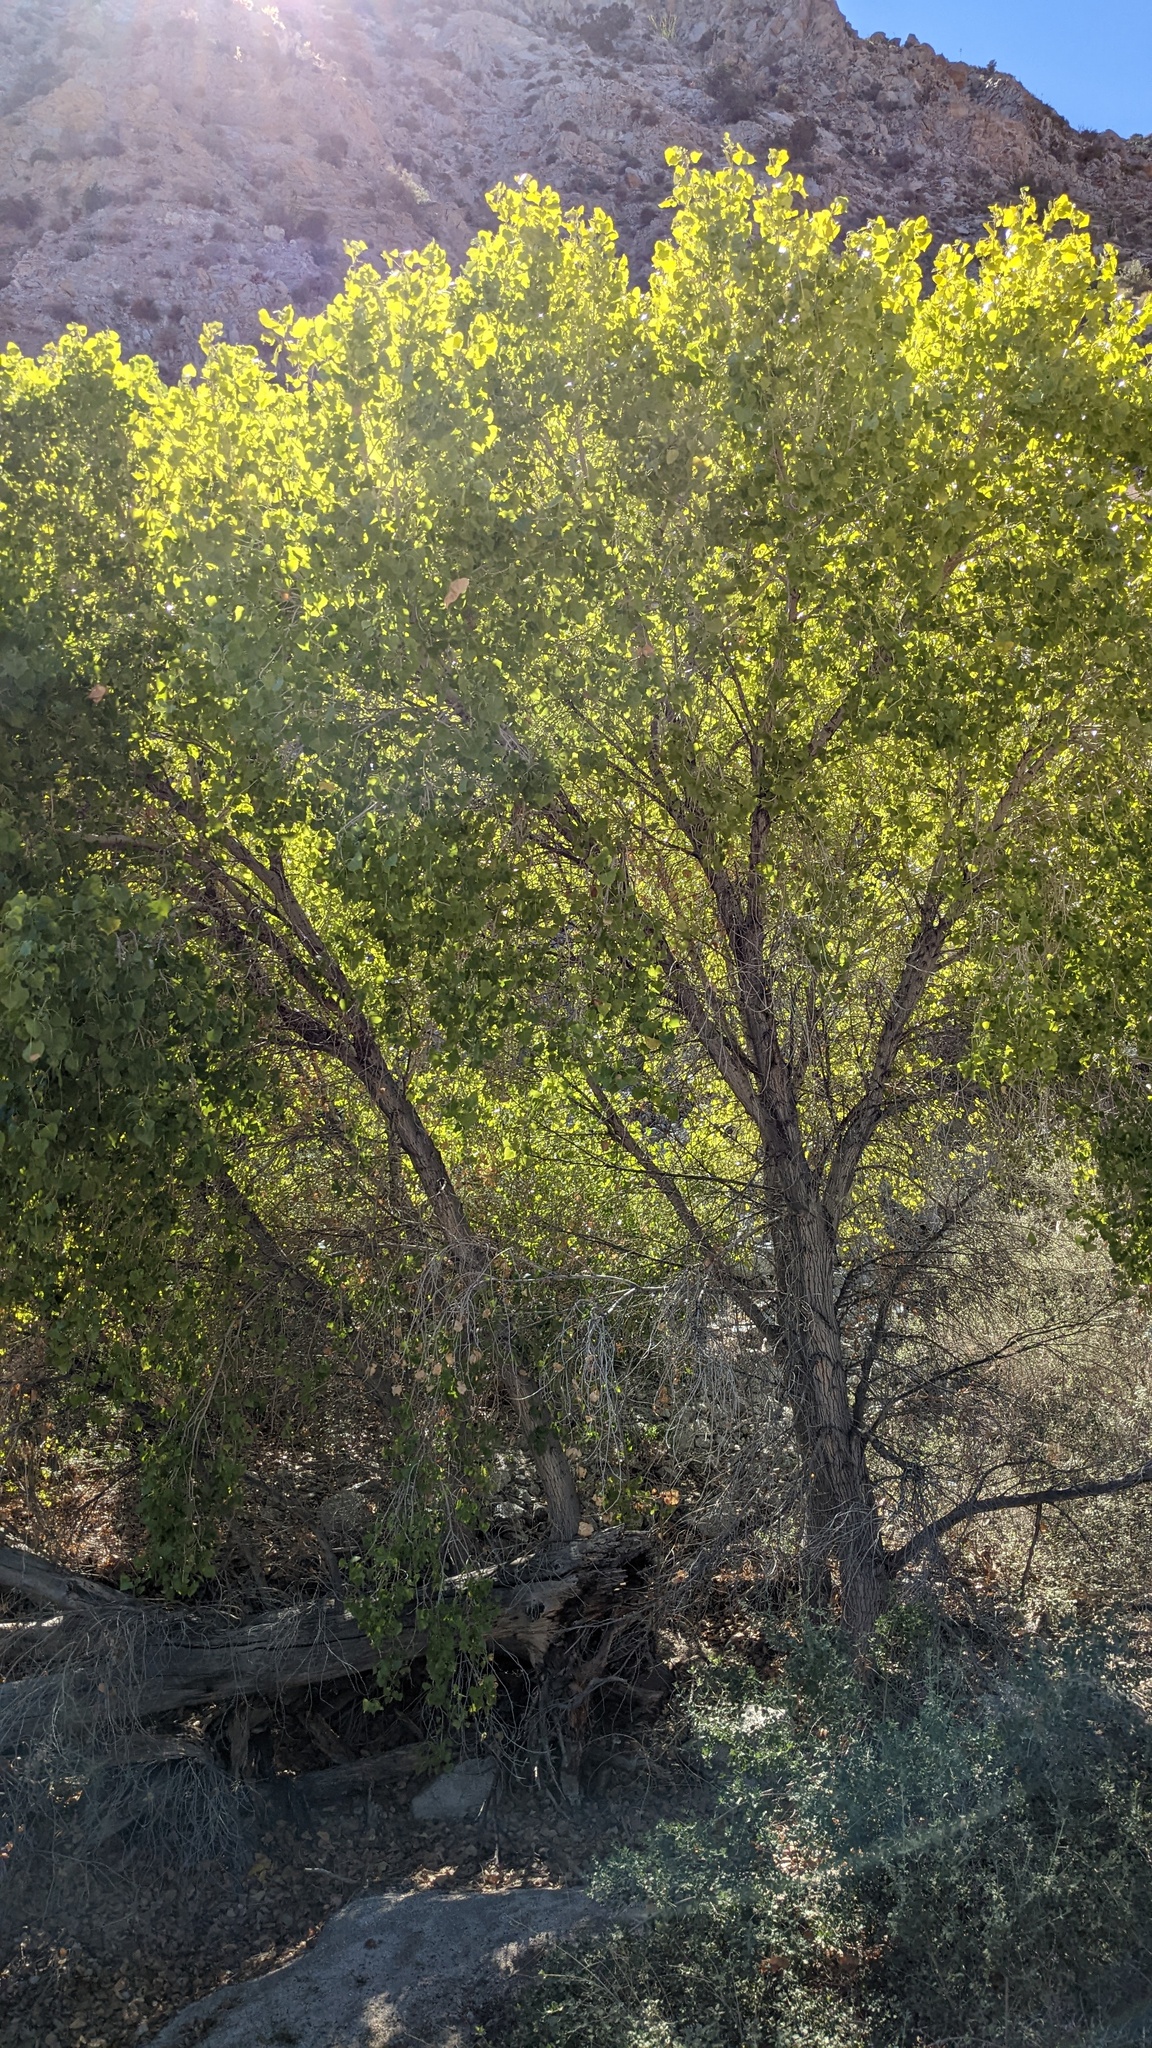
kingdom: Plantae
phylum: Tracheophyta
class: Magnoliopsida
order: Malpighiales
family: Salicaceae
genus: Populus
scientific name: Populus fremontii
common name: Fremont's cottonwood
